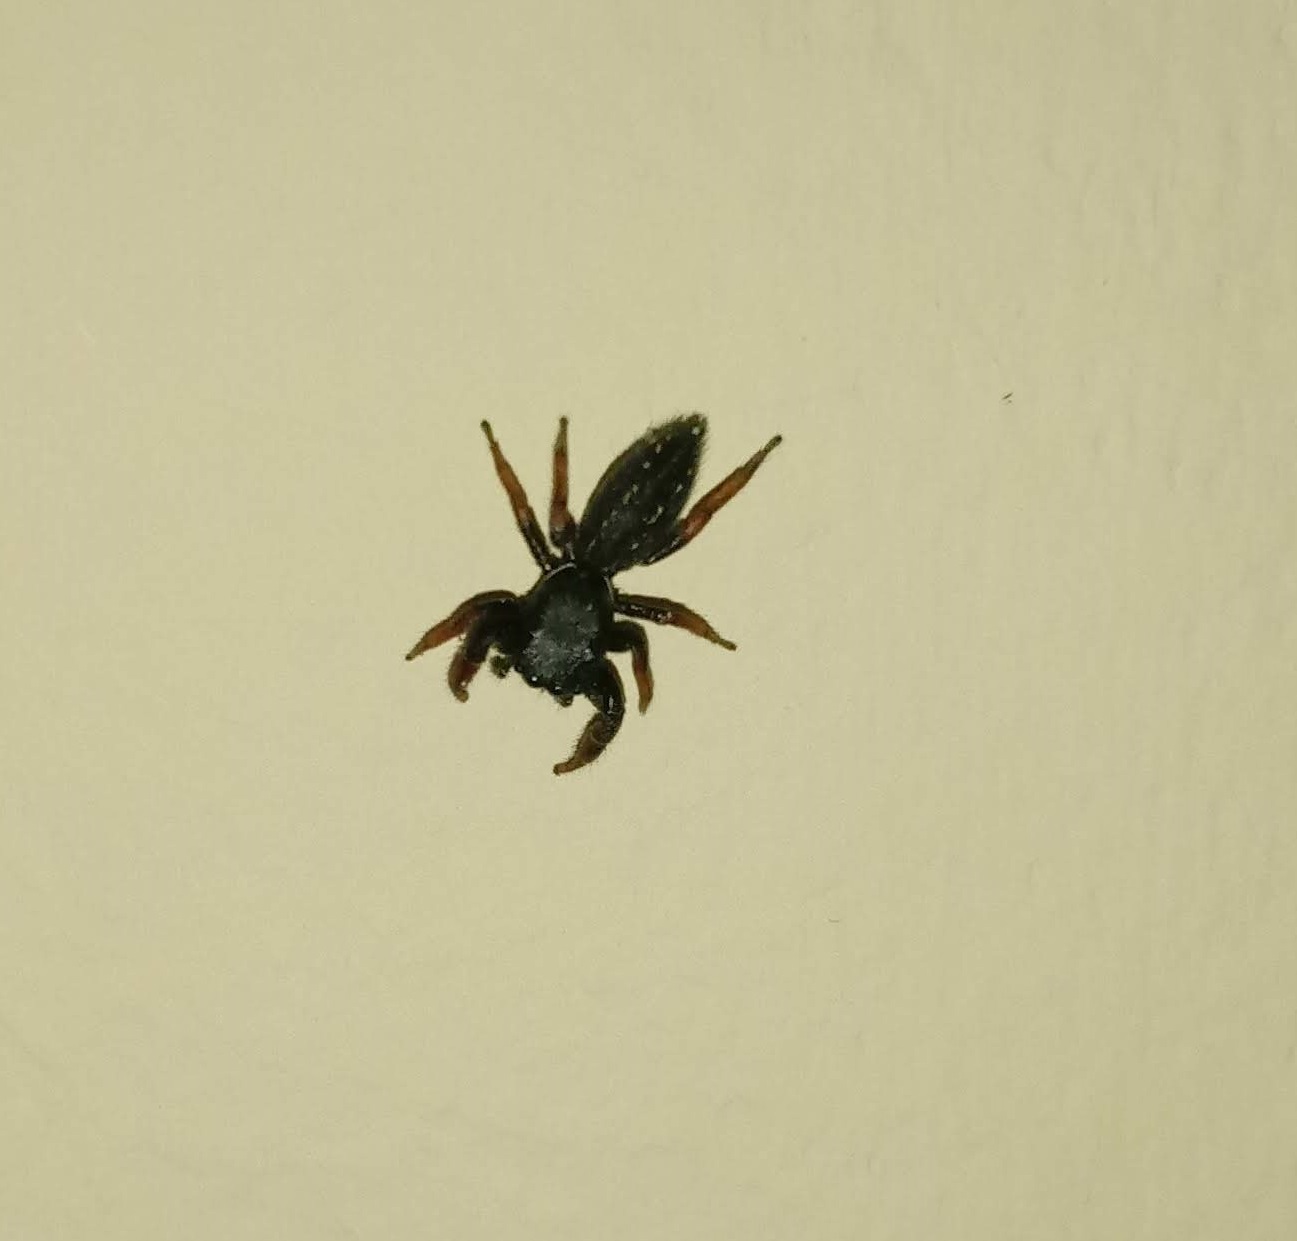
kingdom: Animalia
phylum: Arthropoda
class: Arachnida
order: Araneae
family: Salticidae
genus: Metacyrba
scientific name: Metacyrba taeniola
